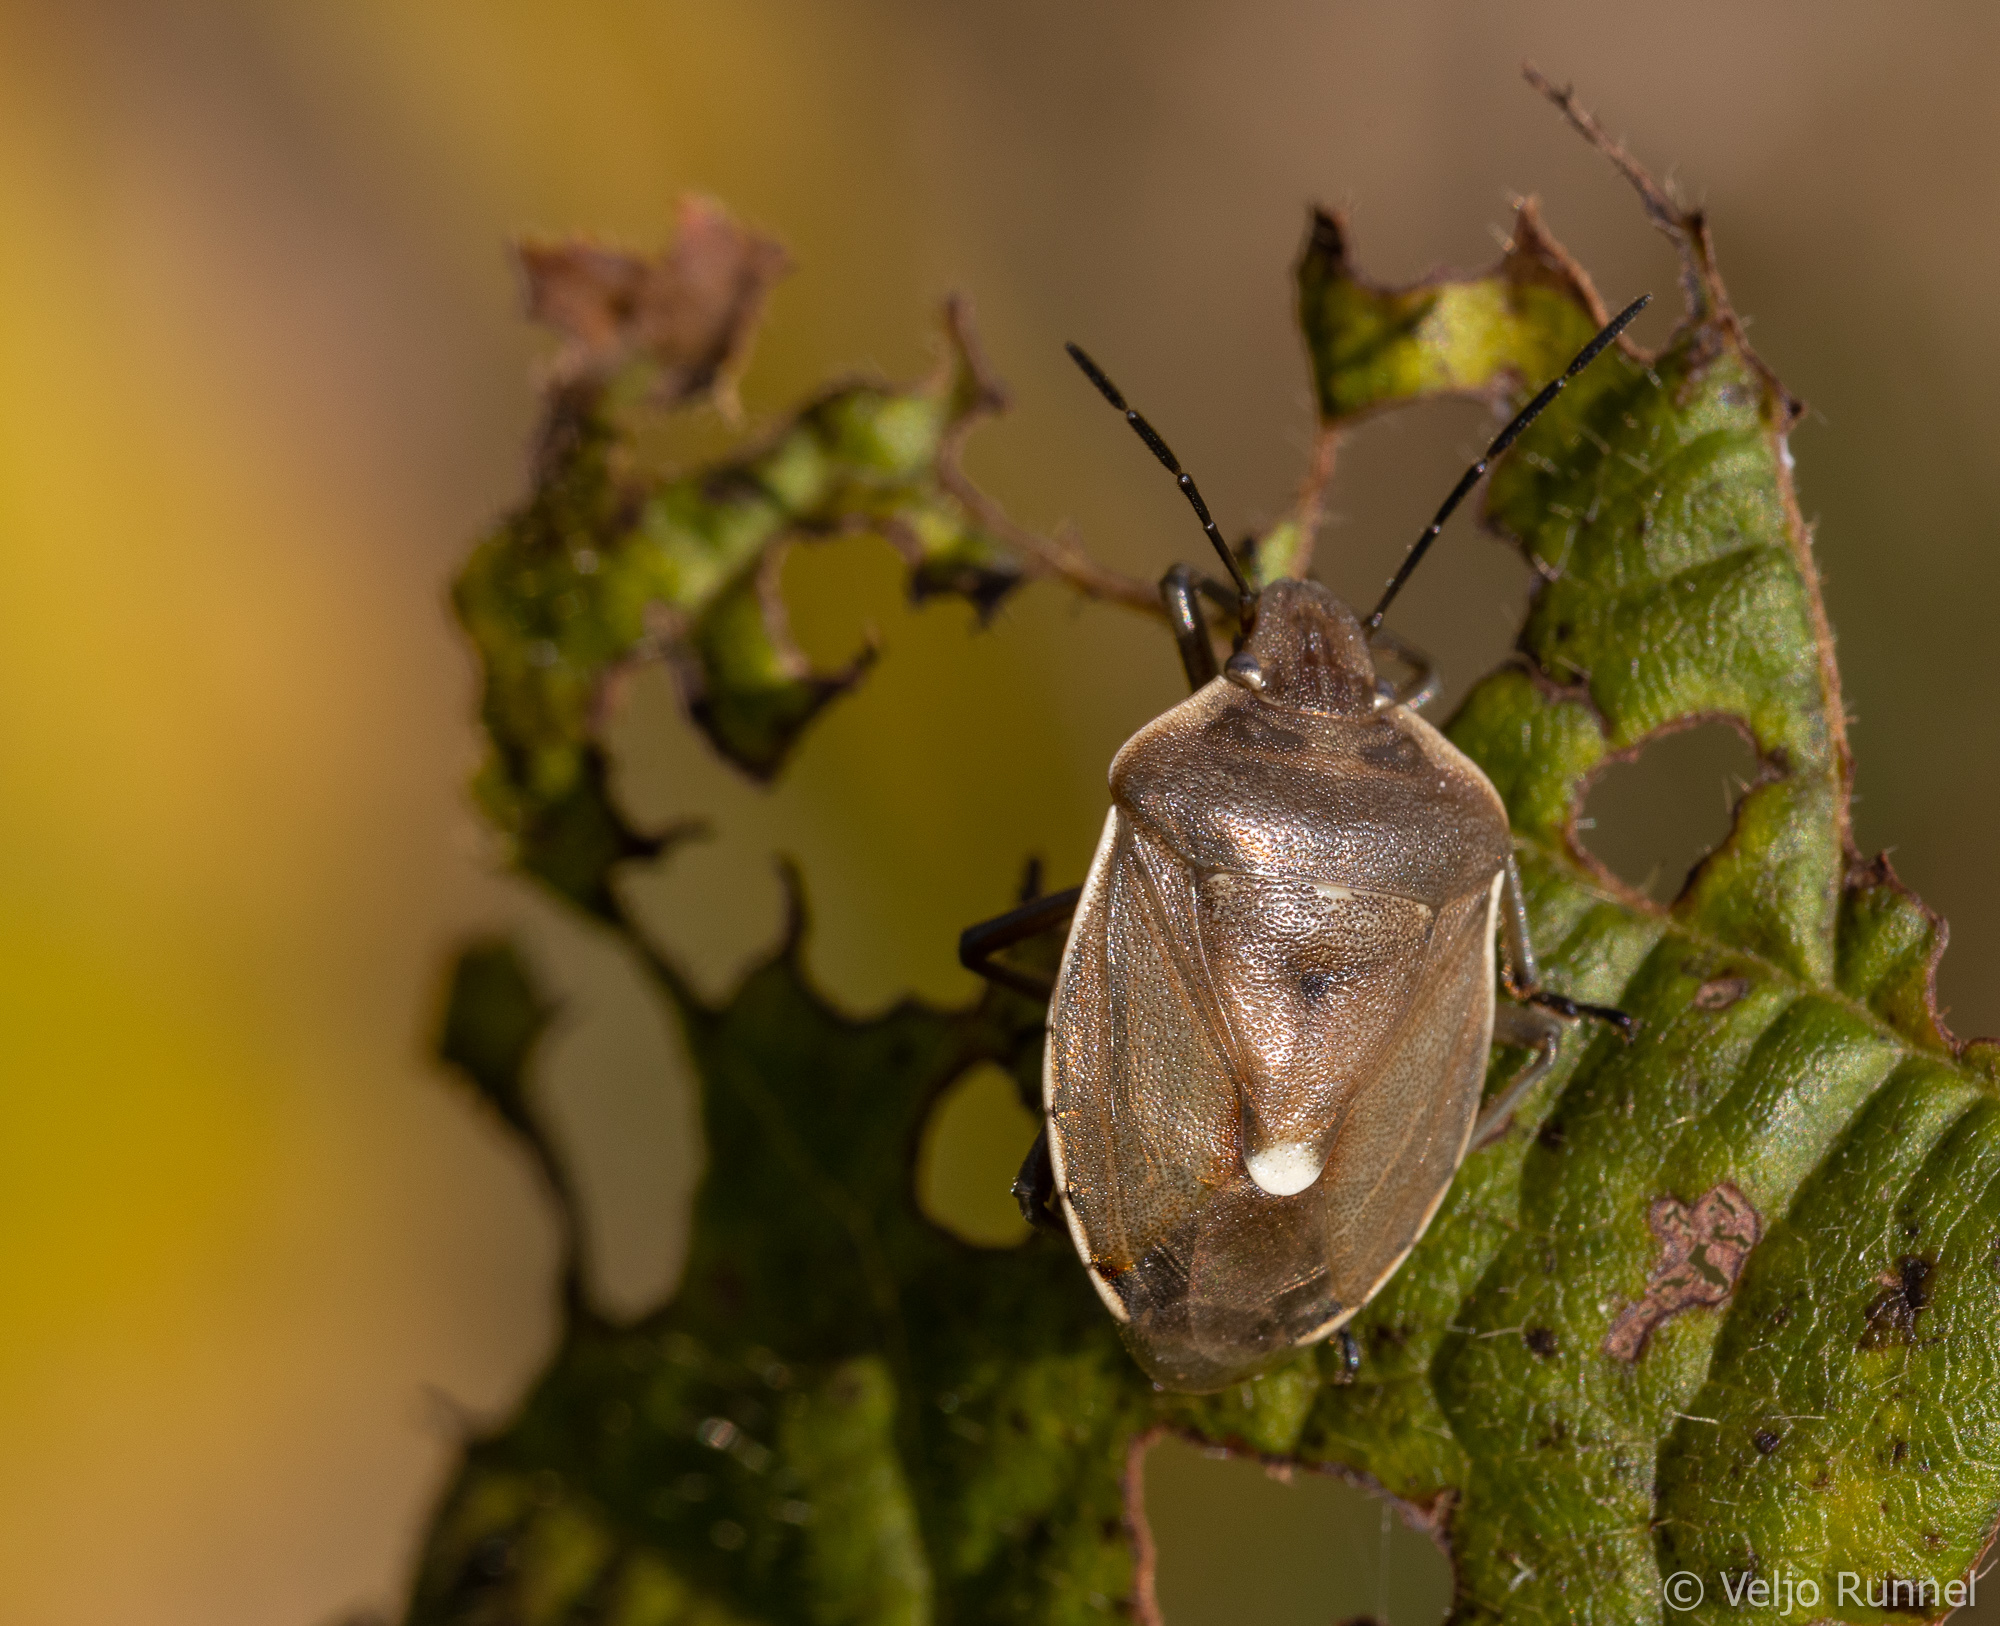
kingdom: Animalia
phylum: Arthropoda
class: Insecta
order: Hemiptera
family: Pentatomidae
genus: Chlorochroa
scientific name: Chlorochroa pinicola
